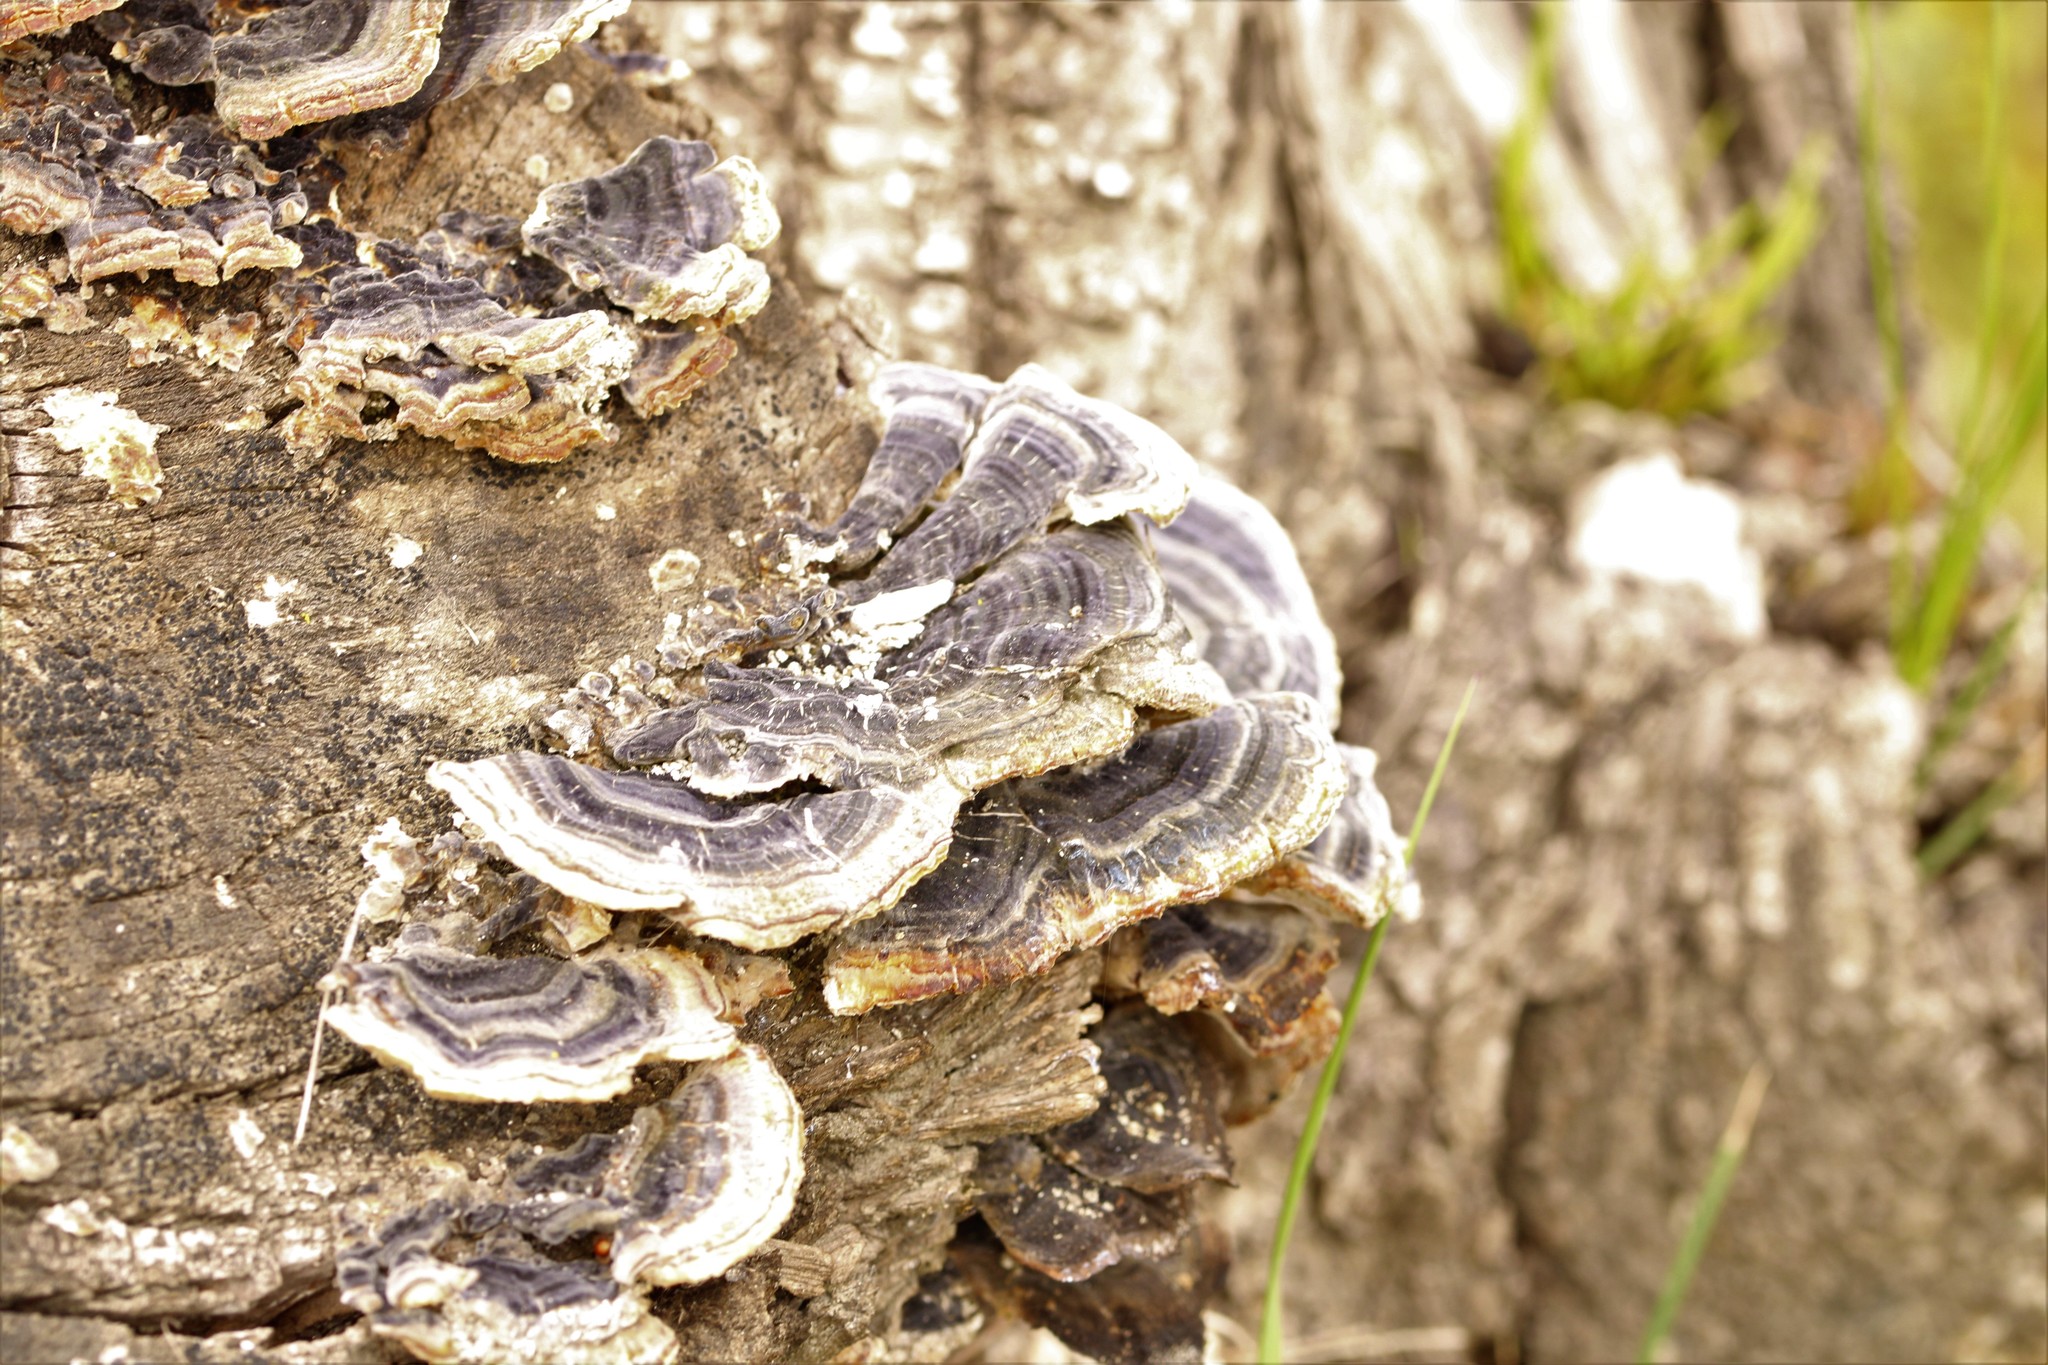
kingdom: Fungi
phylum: Basidiomycota
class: Agaricomycetes
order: Polyporales
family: Polyporaceae
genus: Trametes
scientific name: Trametes versicolor
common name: Turkeytail
